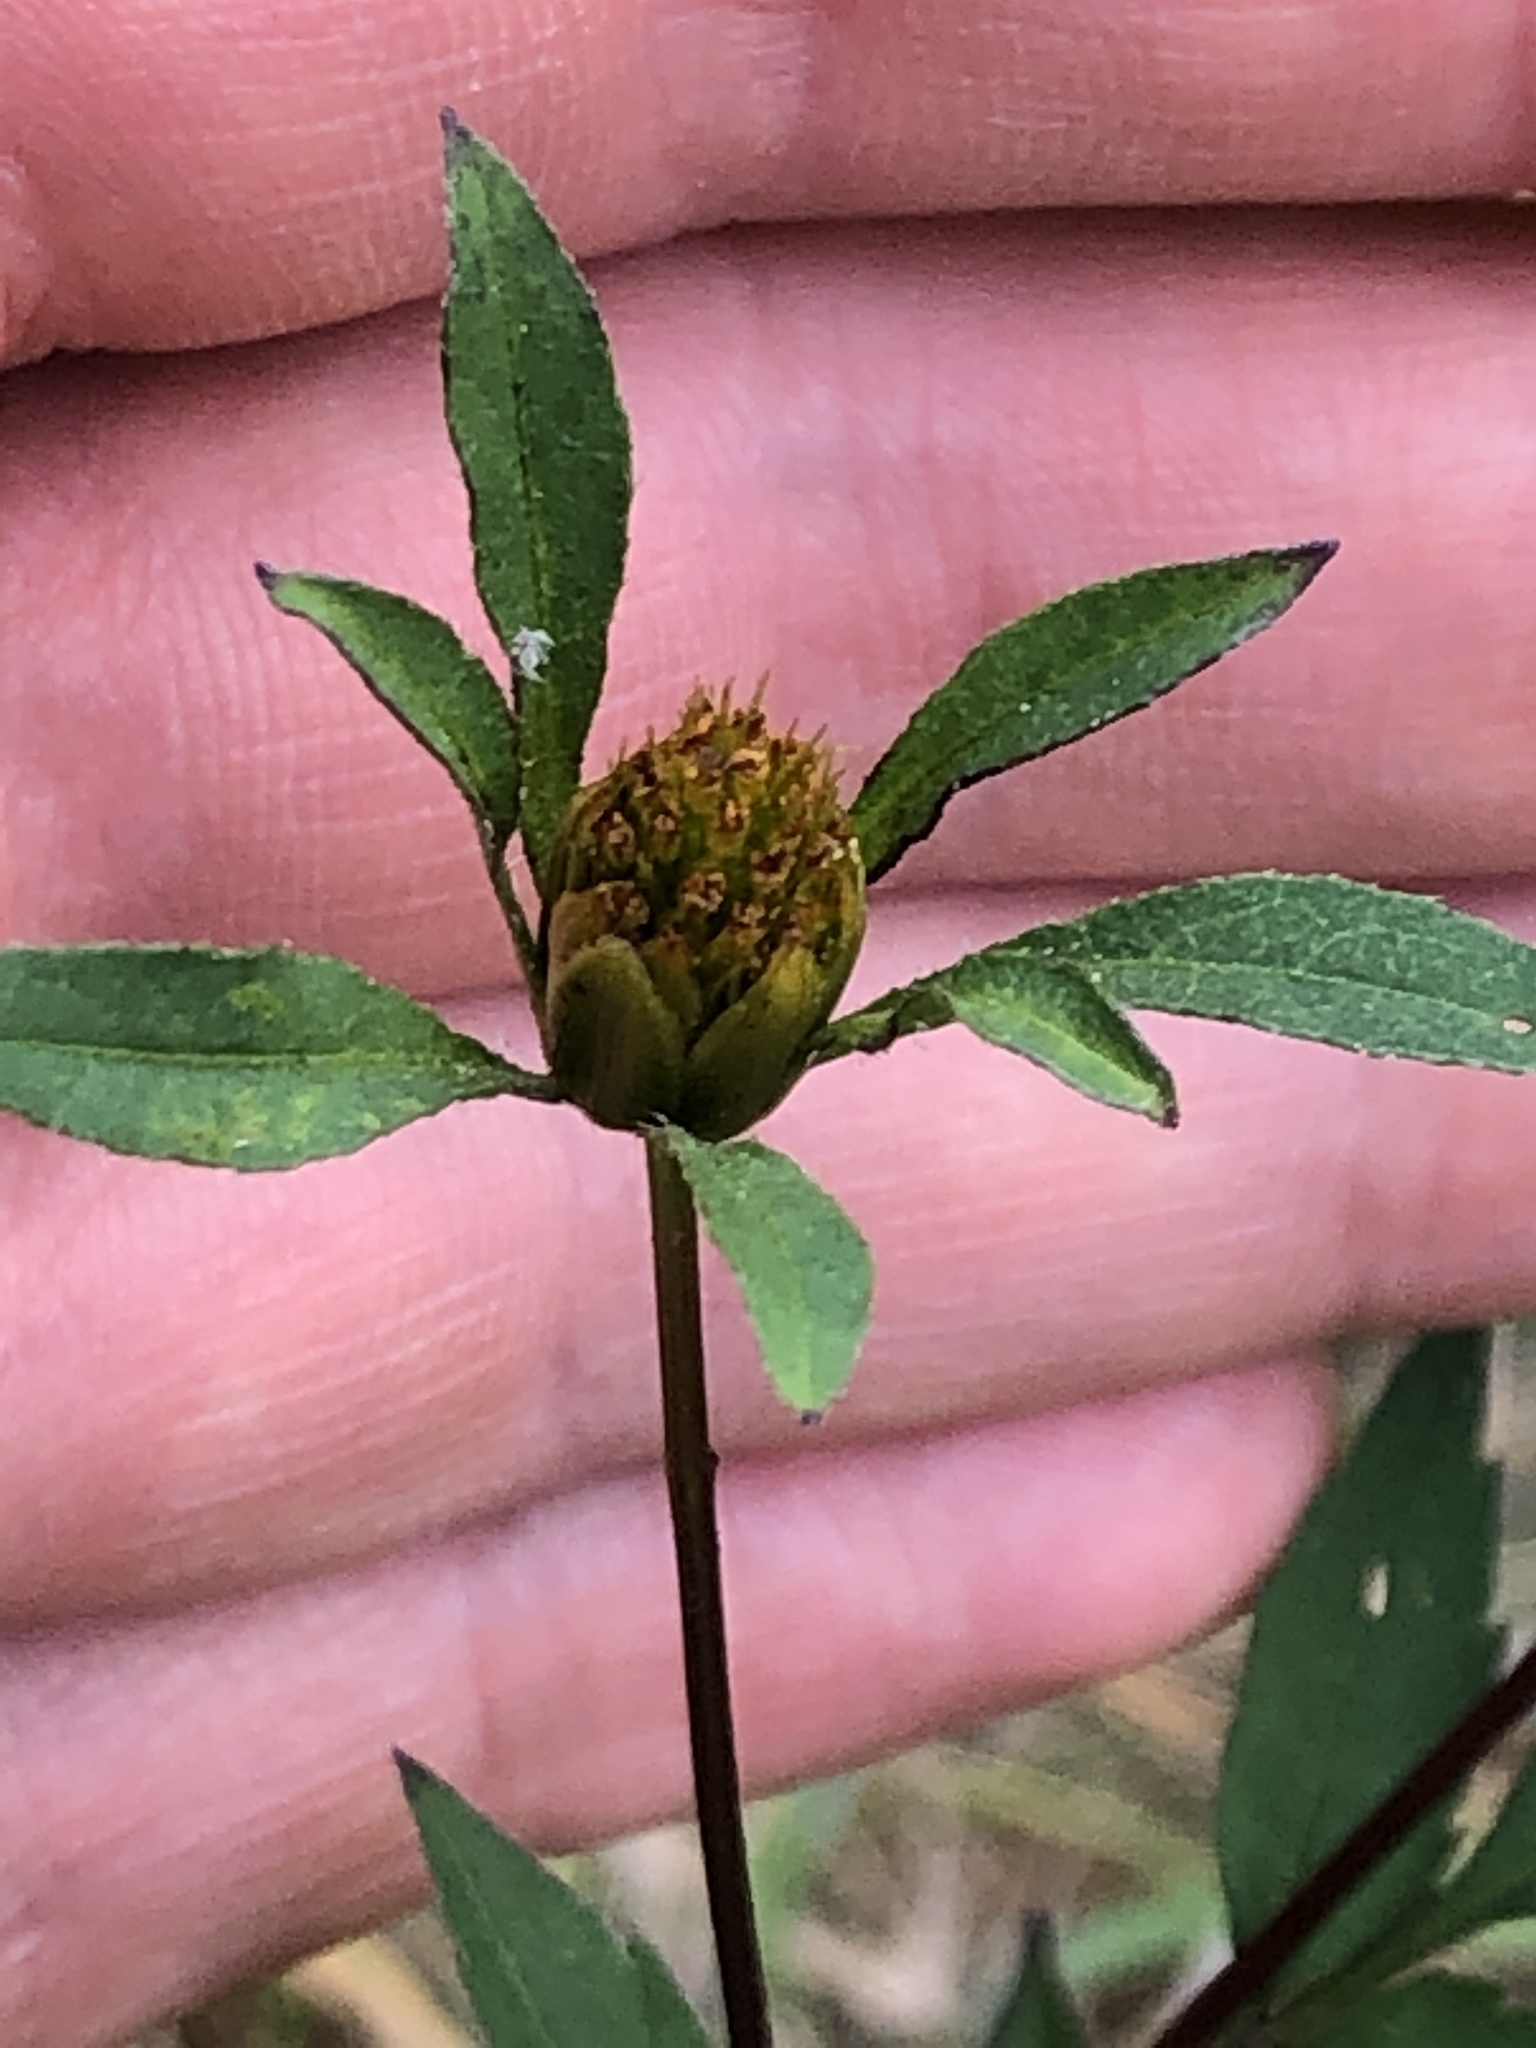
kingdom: Plantae
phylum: Tracheophyta
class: Magnoliopsida
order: Asterales
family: Asteraceae
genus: Bidens
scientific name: Bidens frondosa
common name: Beggarticks
